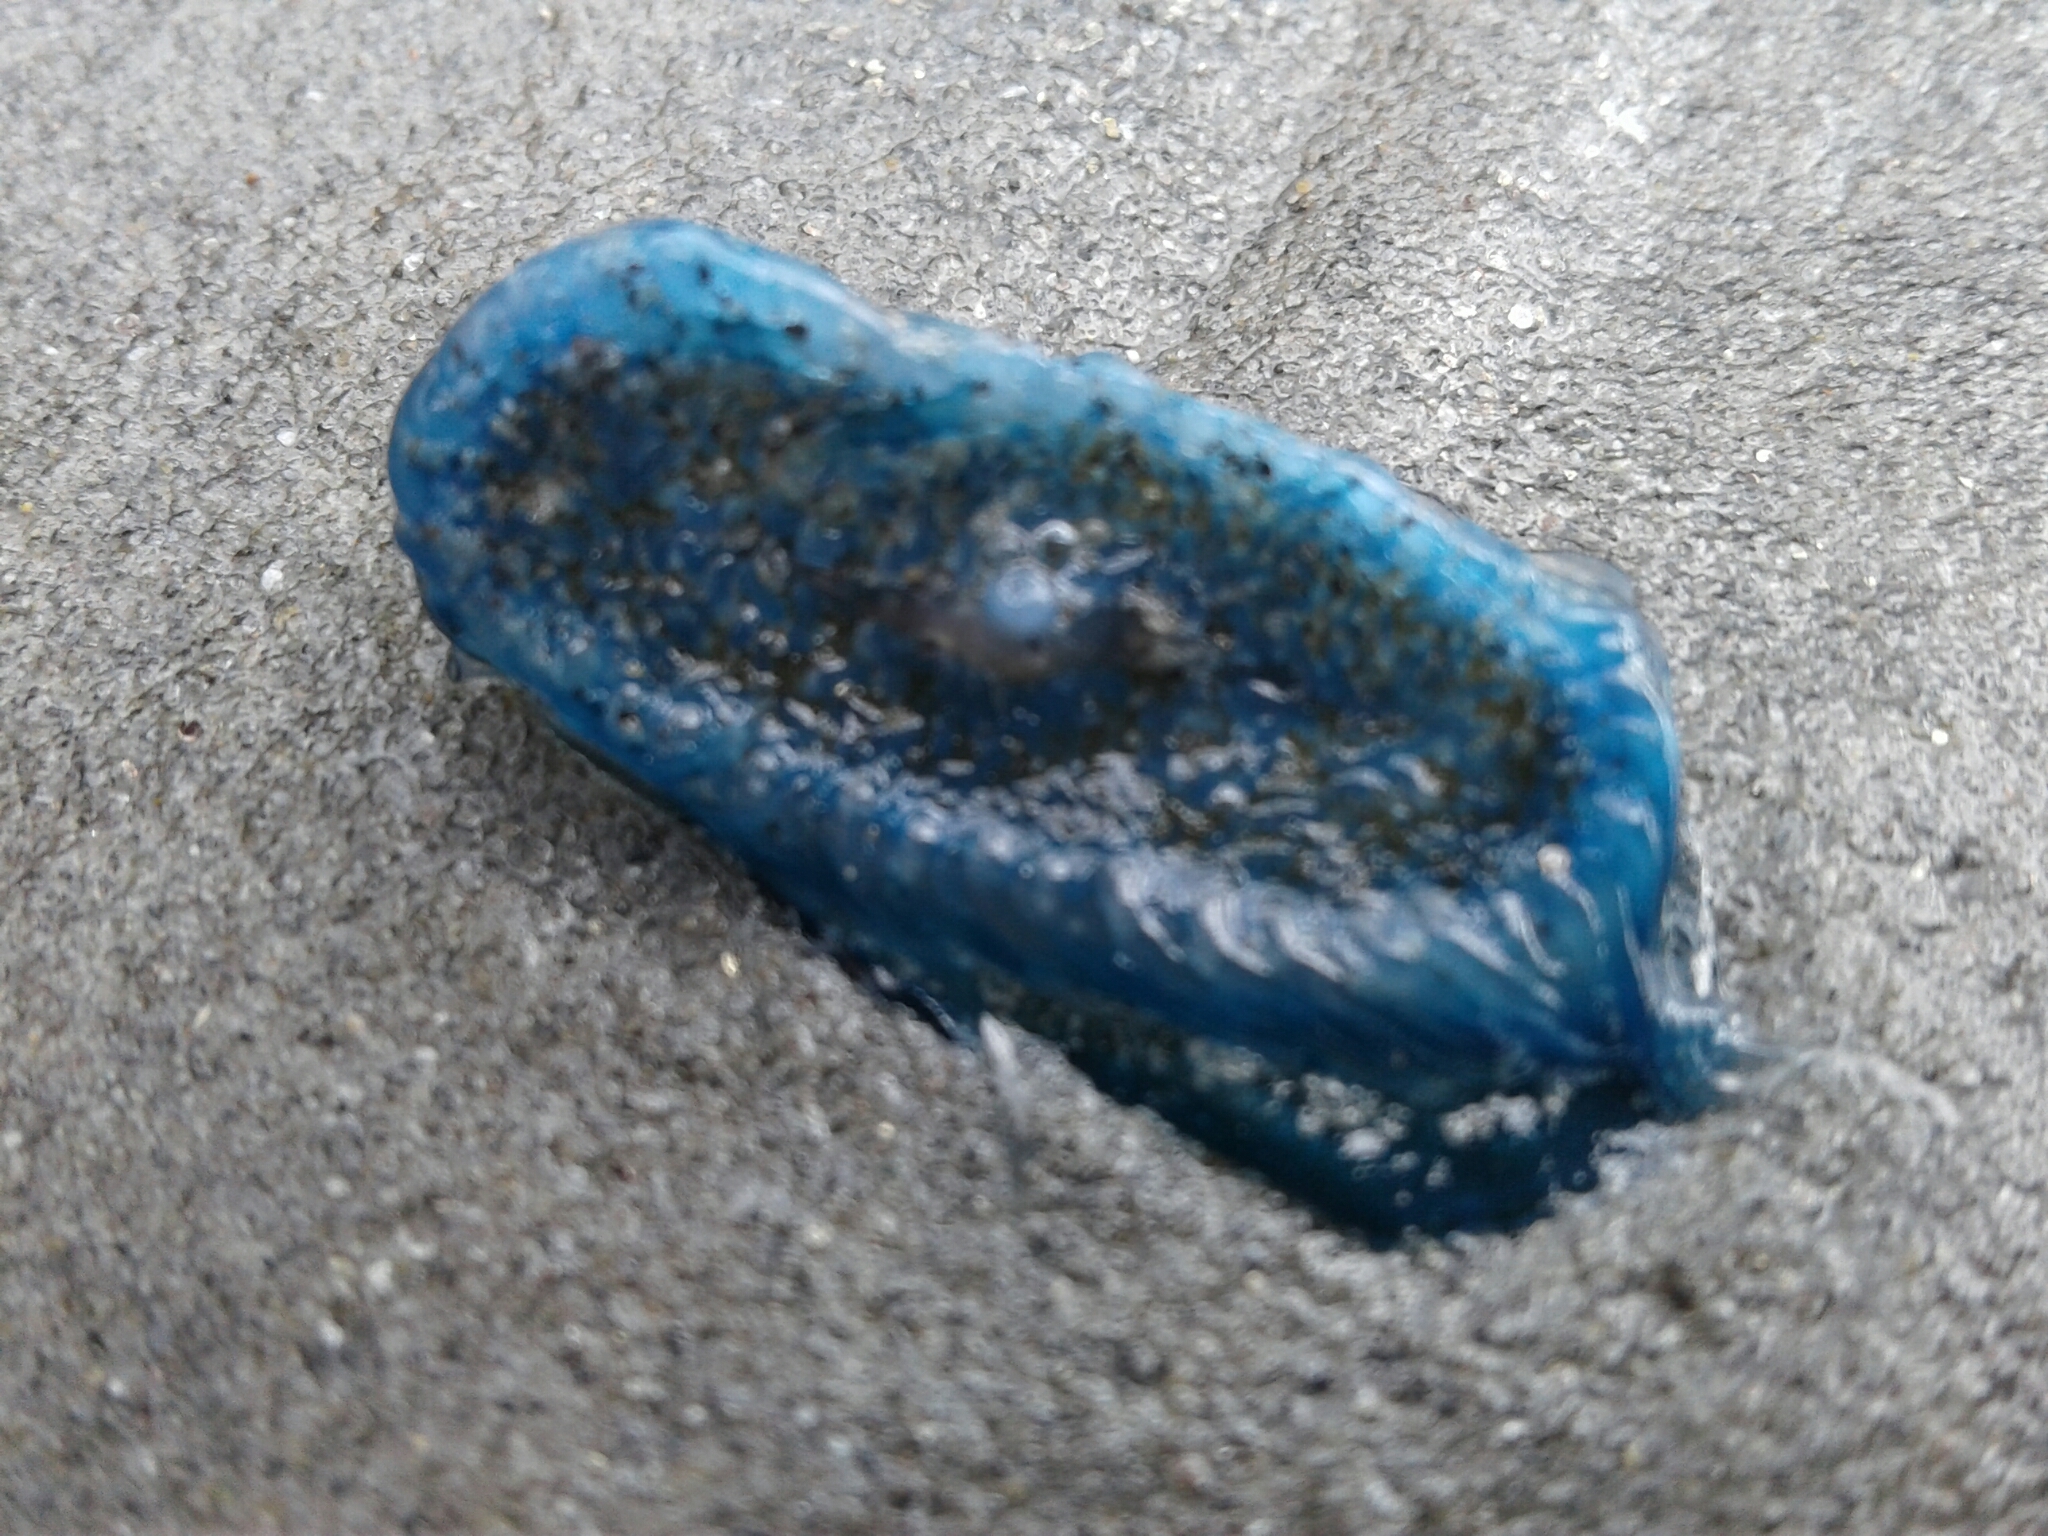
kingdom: Animalia
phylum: Cnidaria
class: Hydrozoa
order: Anthoathecata
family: Porpitidae
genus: Velella
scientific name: Velella velella
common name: By-the-wind-sailor
